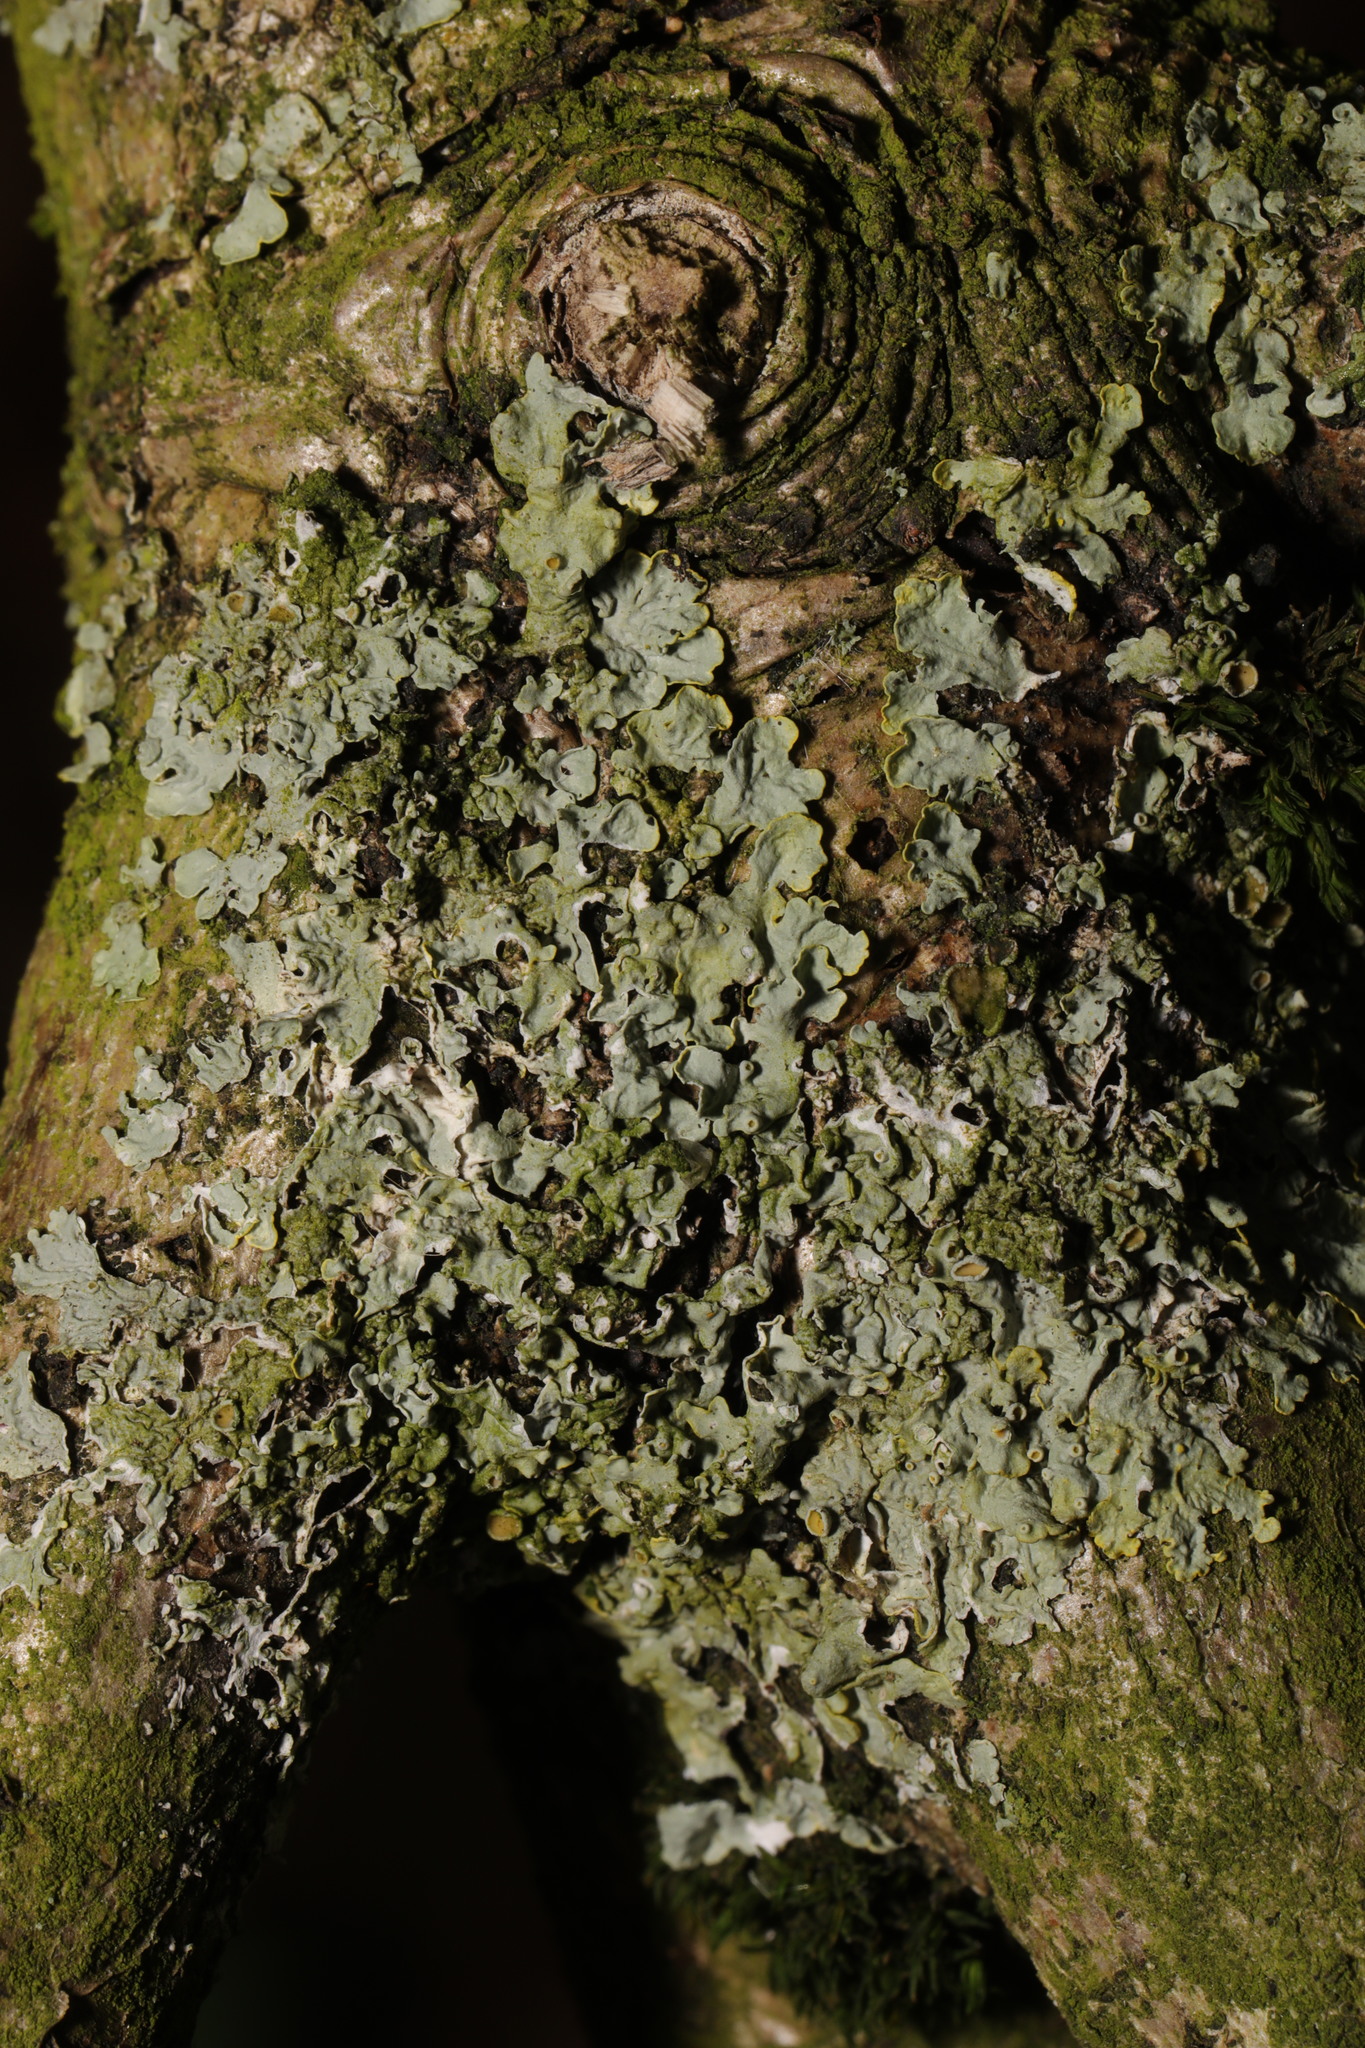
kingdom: Fungi
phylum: Ascomycota
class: Lecanoromycetes
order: Teloschistales
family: Teloschistaceae
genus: Xanthoria
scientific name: Xanthoria parietina
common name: Common orange lichen
